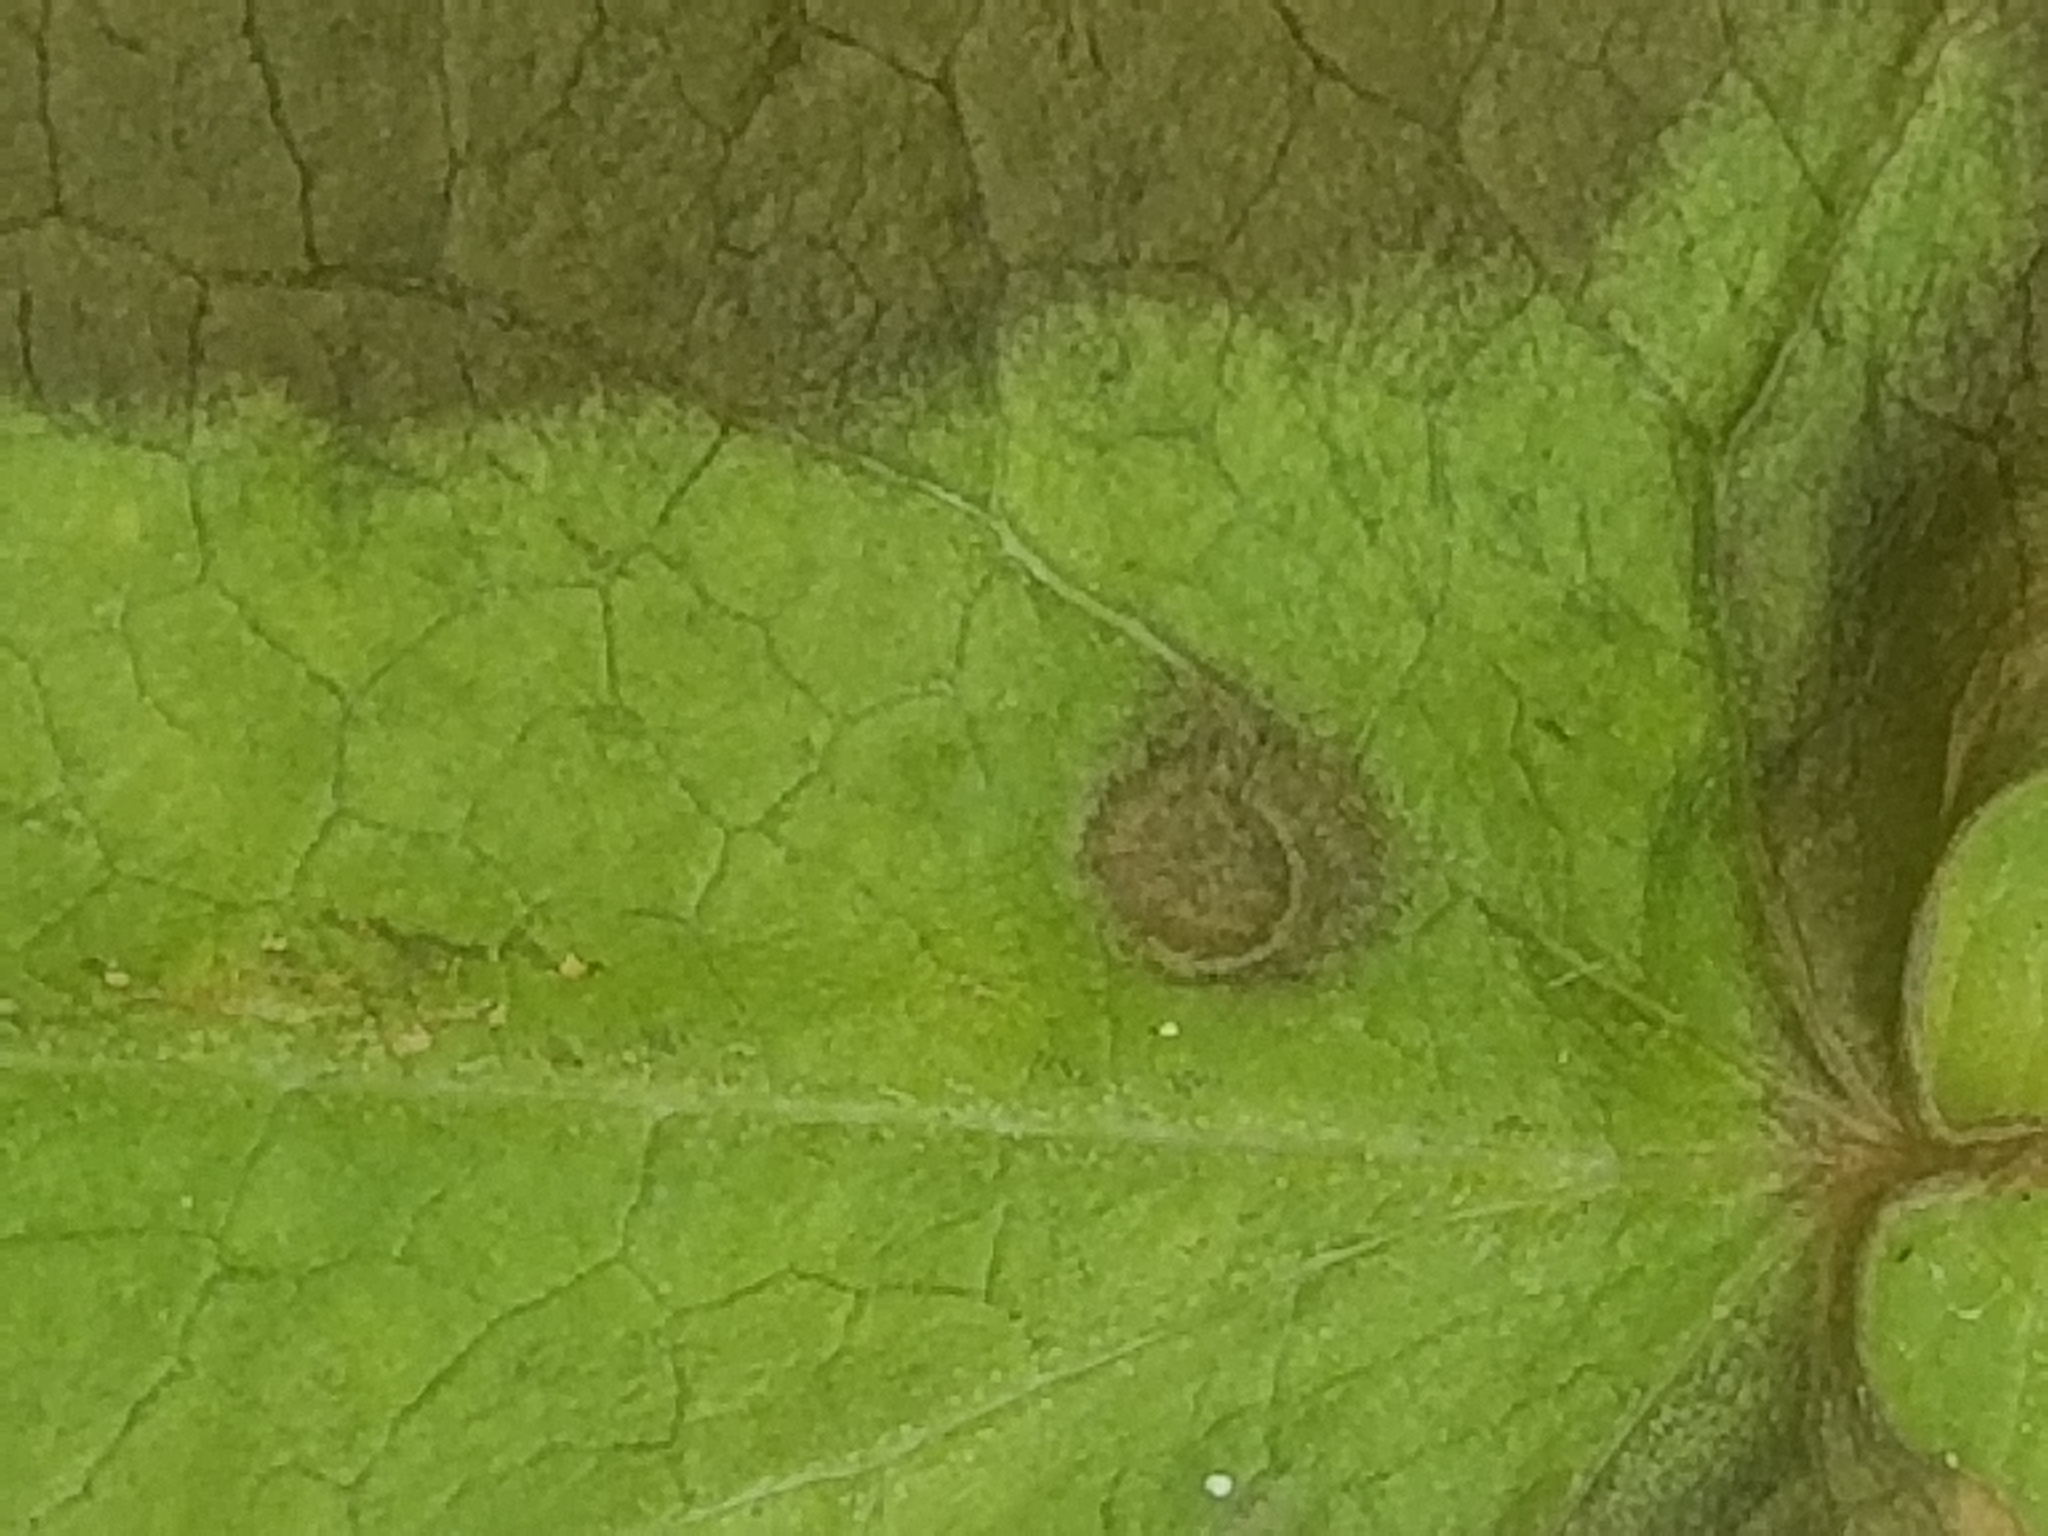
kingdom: Plantae
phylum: Tracheophyta
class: Magnoliopsida
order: Gentianales
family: Apocynaceae
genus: Asclepias
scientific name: Asclepias syriaca
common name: Common milkweed
